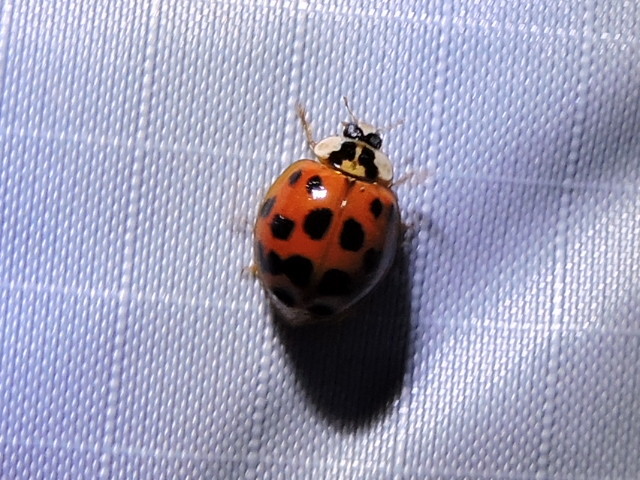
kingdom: Animalia
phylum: Arthropoda
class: Insecta
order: Coleoptera
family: Coccinellidae
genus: Harmonia
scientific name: Harmonia axyridis
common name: Harlequin ladybird
